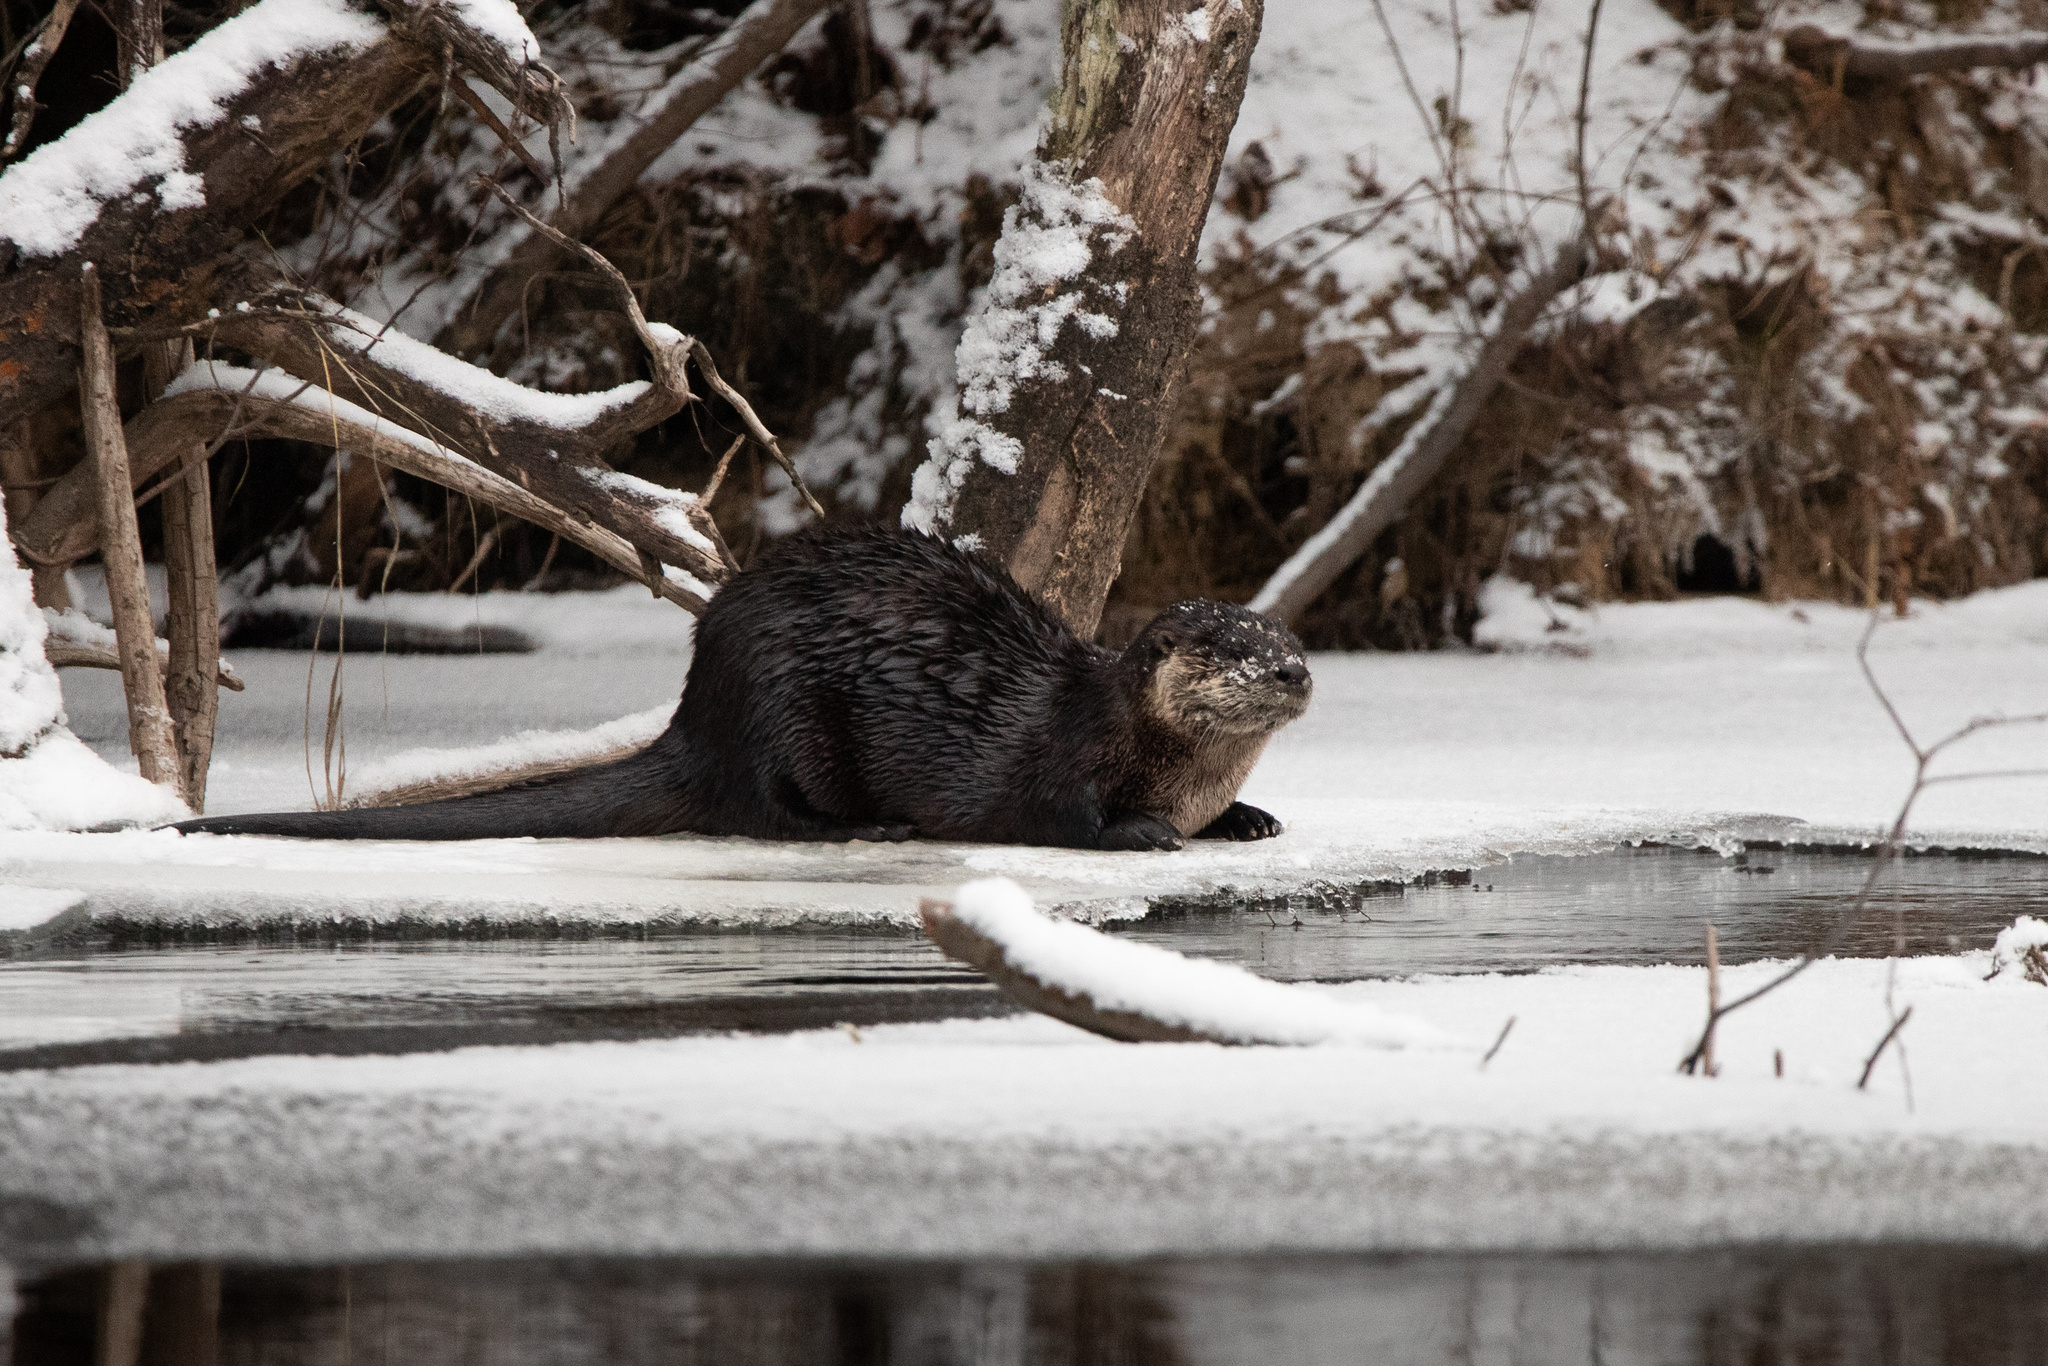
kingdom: Animalia
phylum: Chordata
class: Mammalia
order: Carnivora
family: Mustelidae
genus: Lontra
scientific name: Lontra canadensis
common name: North american river otter
